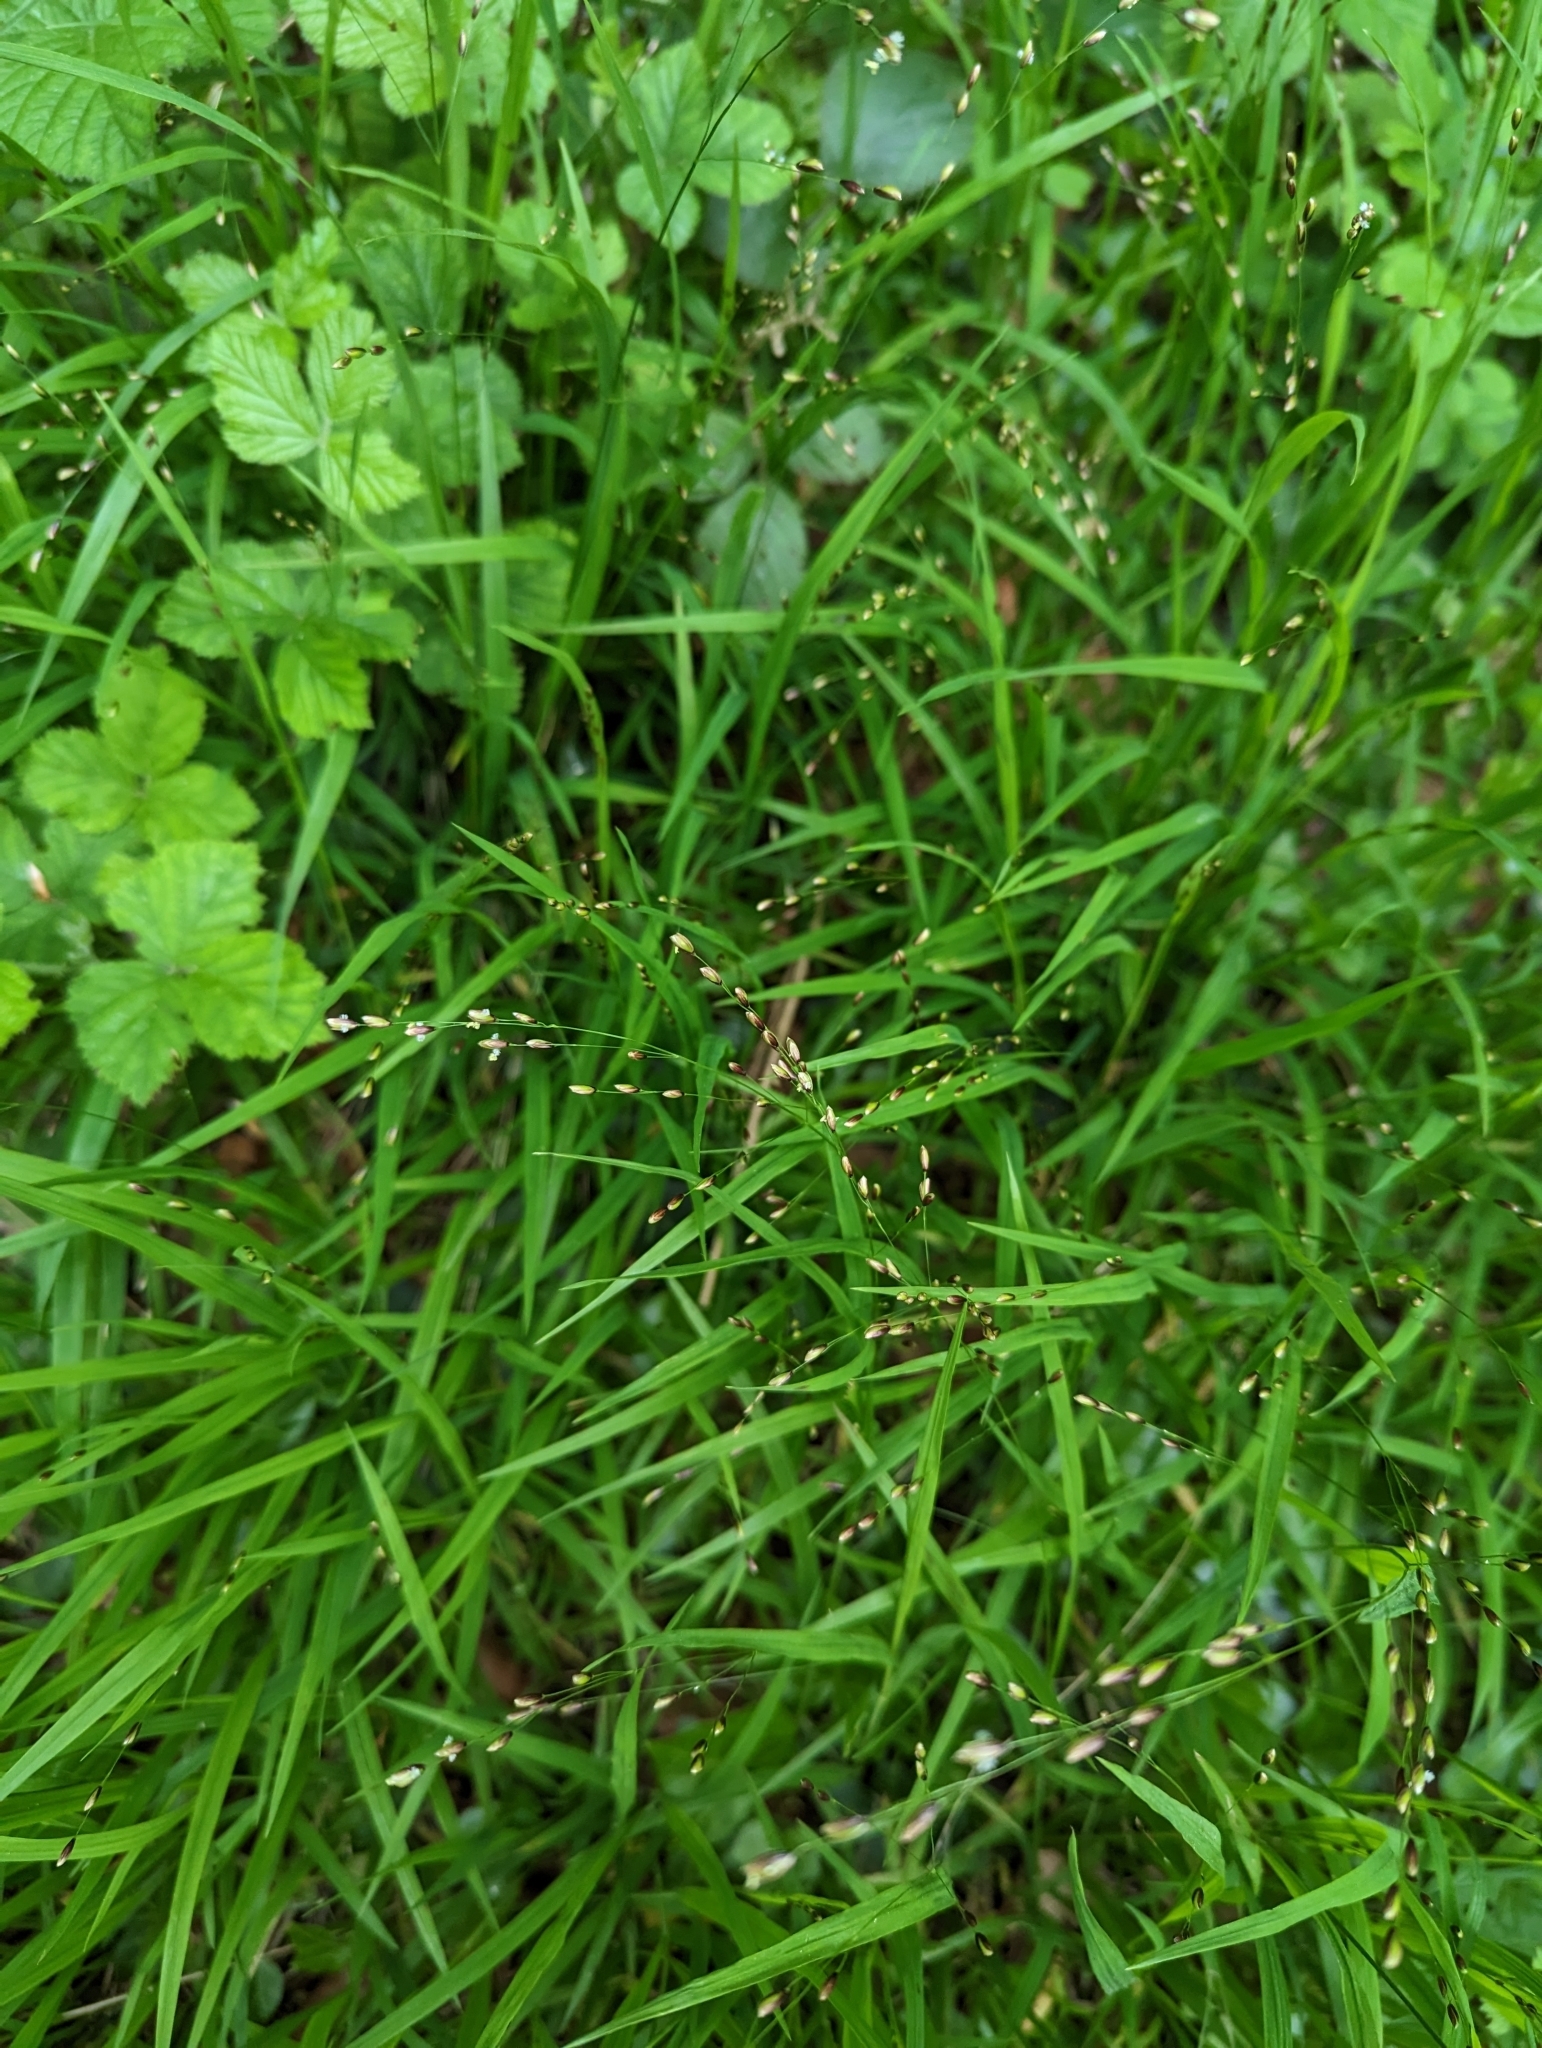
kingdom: Plantae
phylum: Tracheophyta
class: Liliopsida
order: Poales
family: Poaceae
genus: Melica
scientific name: Melica uniflora
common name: Wood melick
